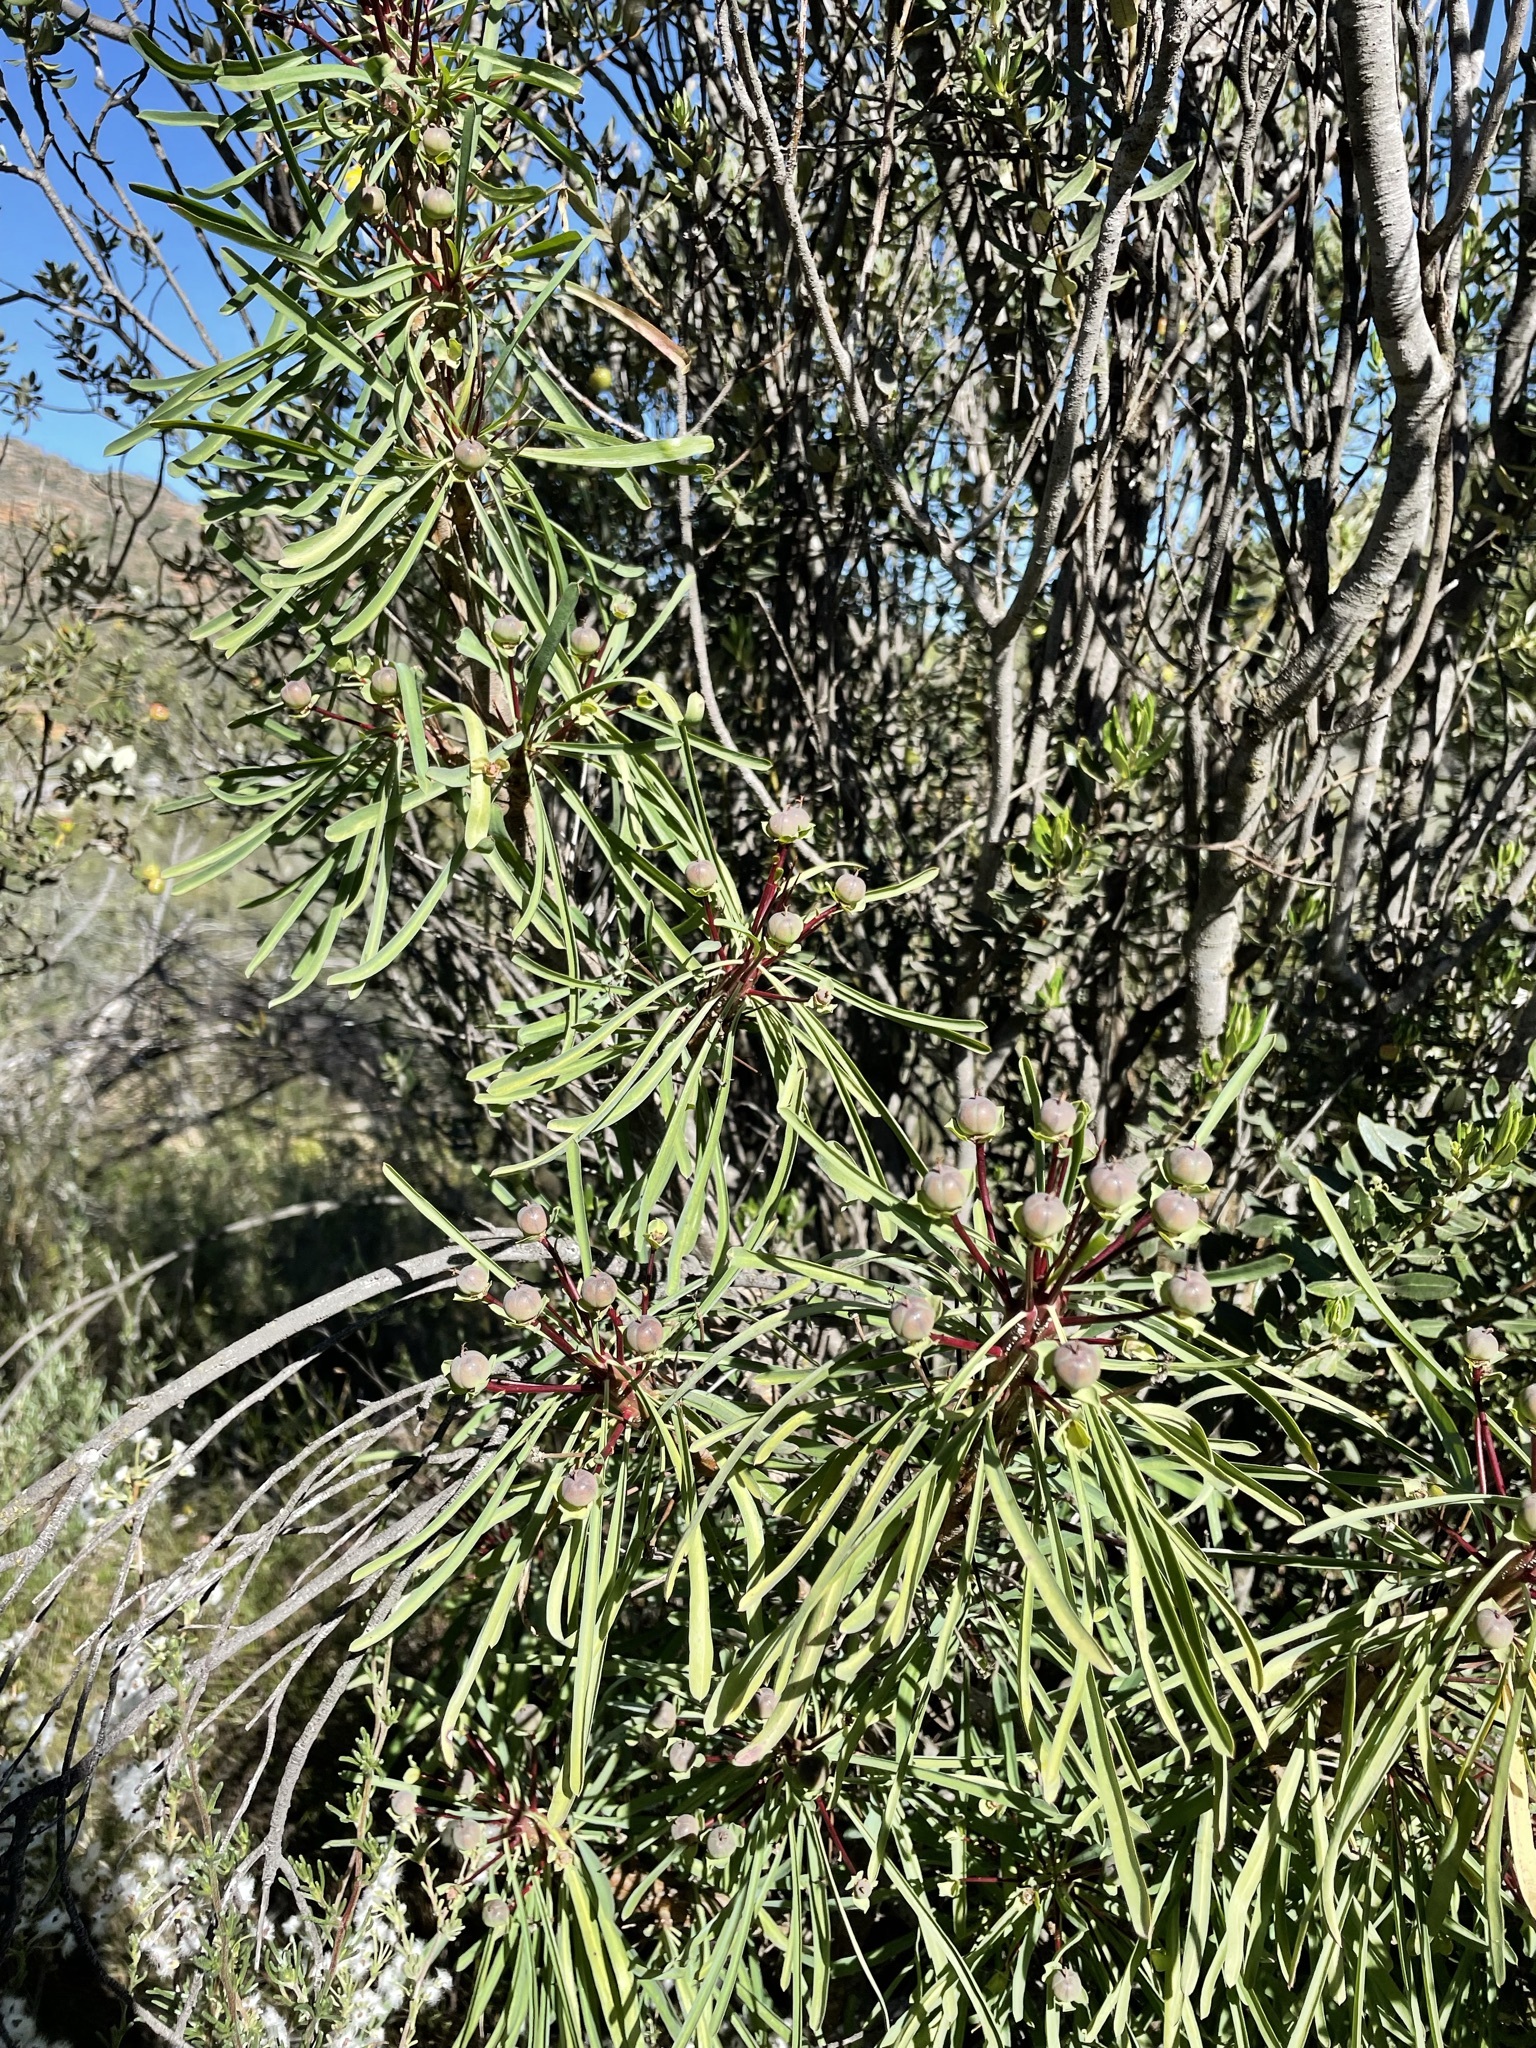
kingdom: Plantae
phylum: Tracheophyta
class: Magnoliopsida
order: Malpighiales
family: Euphorbiaceae
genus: Euphorbia
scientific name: Euphorbia loricata
